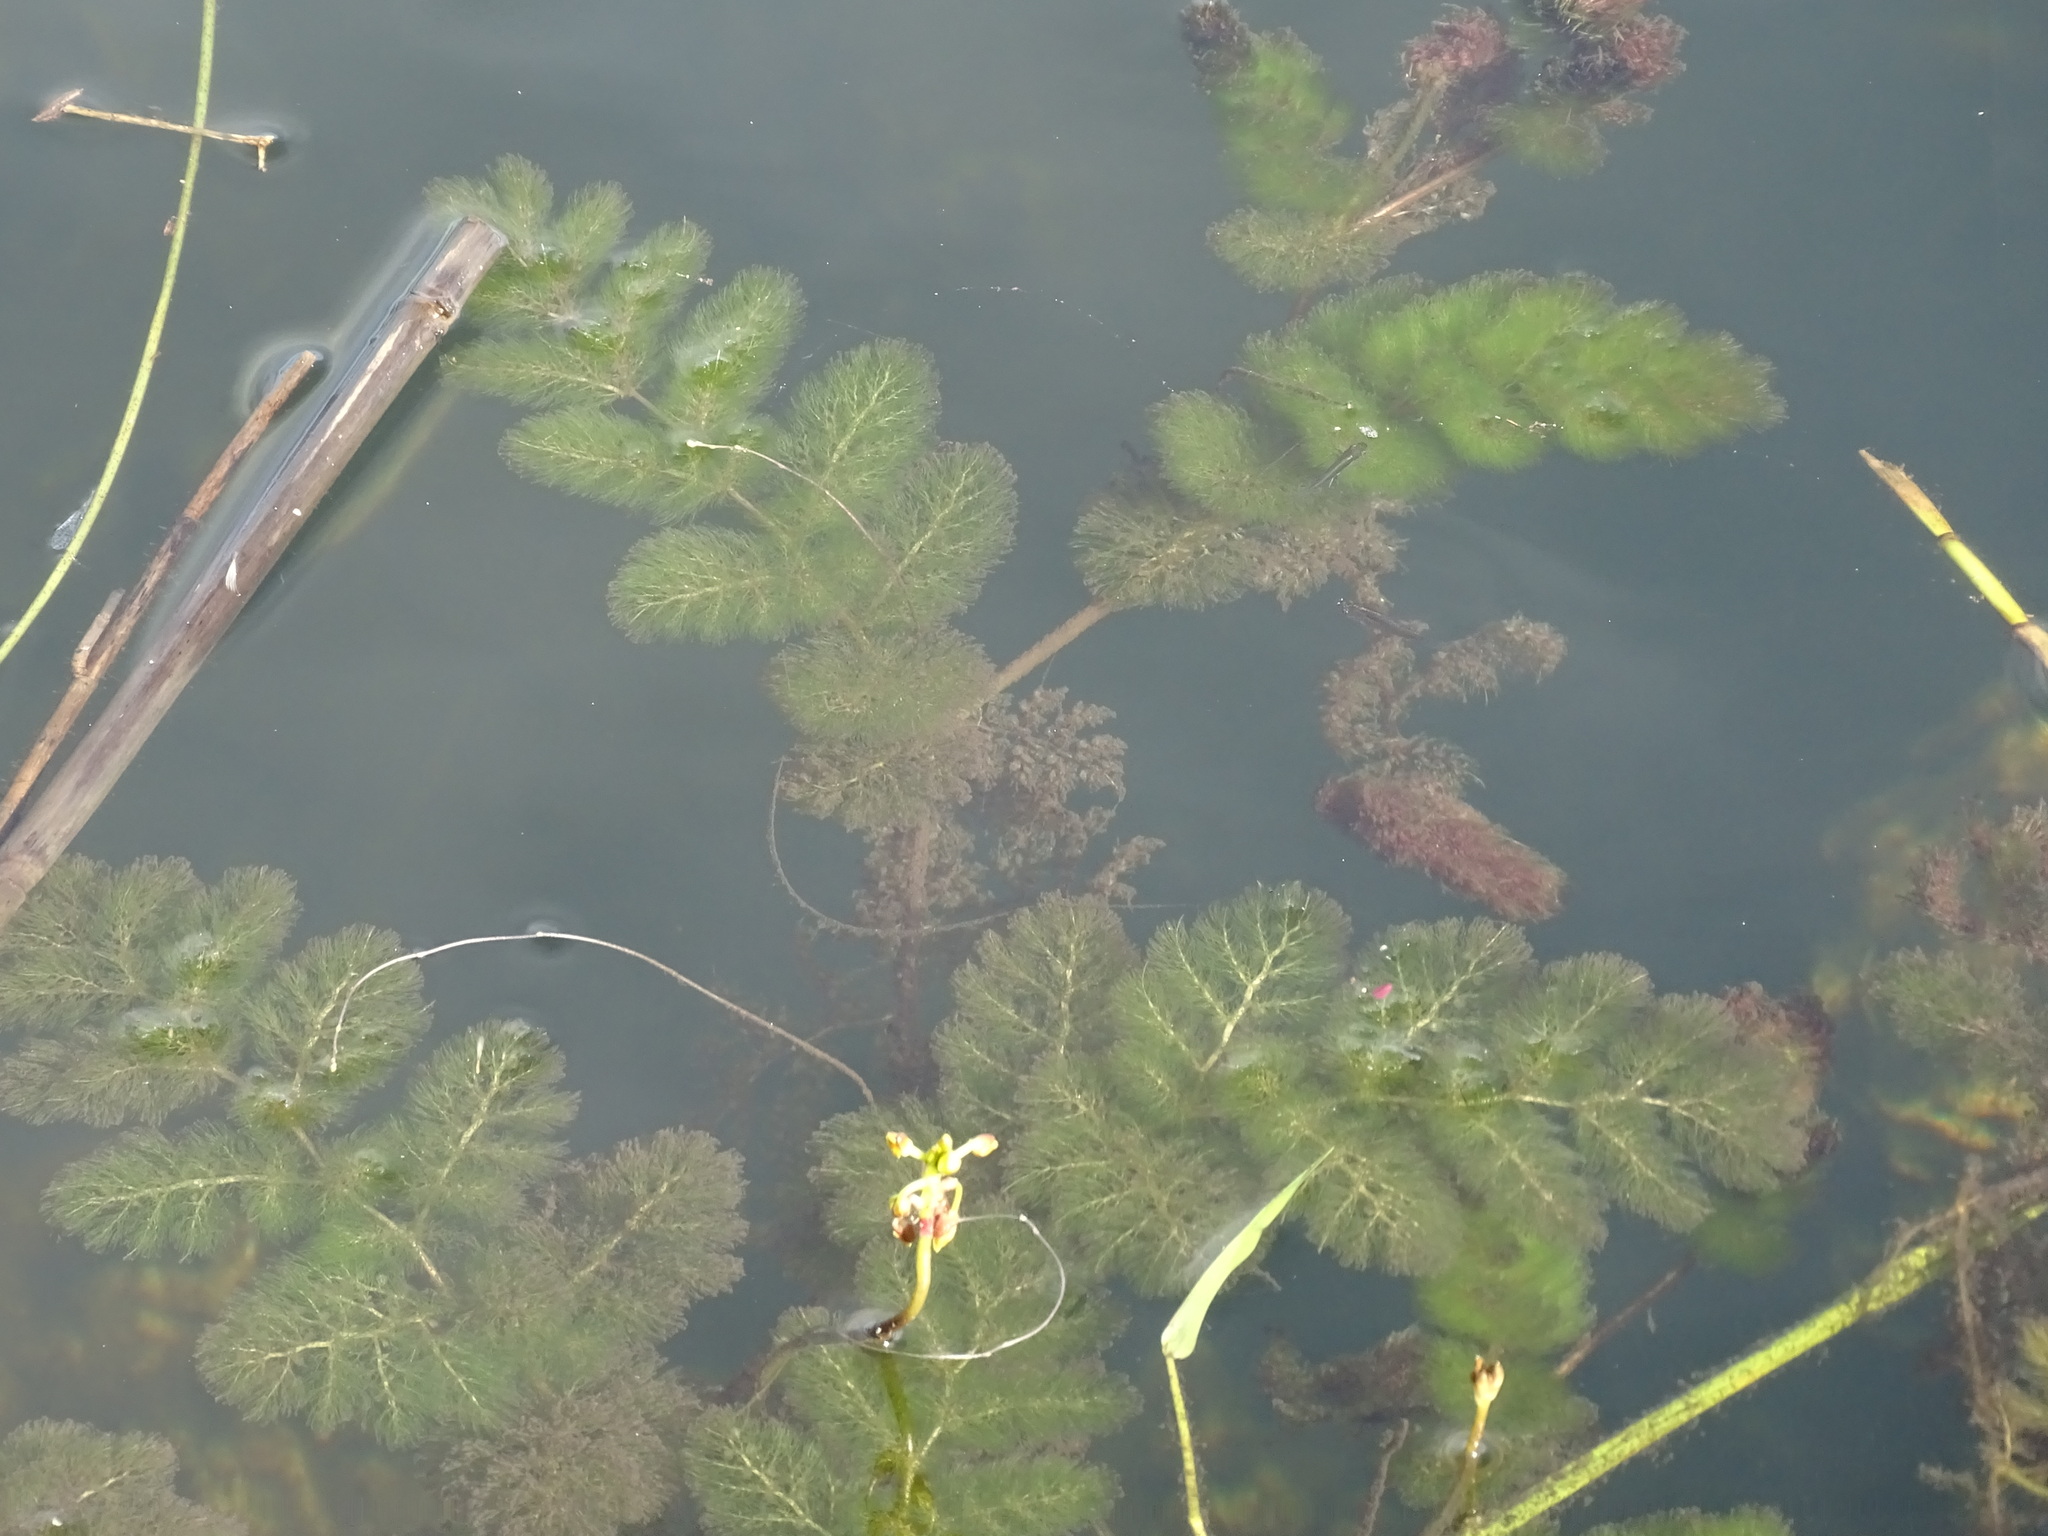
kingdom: Plantae
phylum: Tracheophyta
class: Magnoliopsida
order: Lamiales
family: Lentibulariaceae
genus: Utricularia
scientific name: Utricularia foliosa
